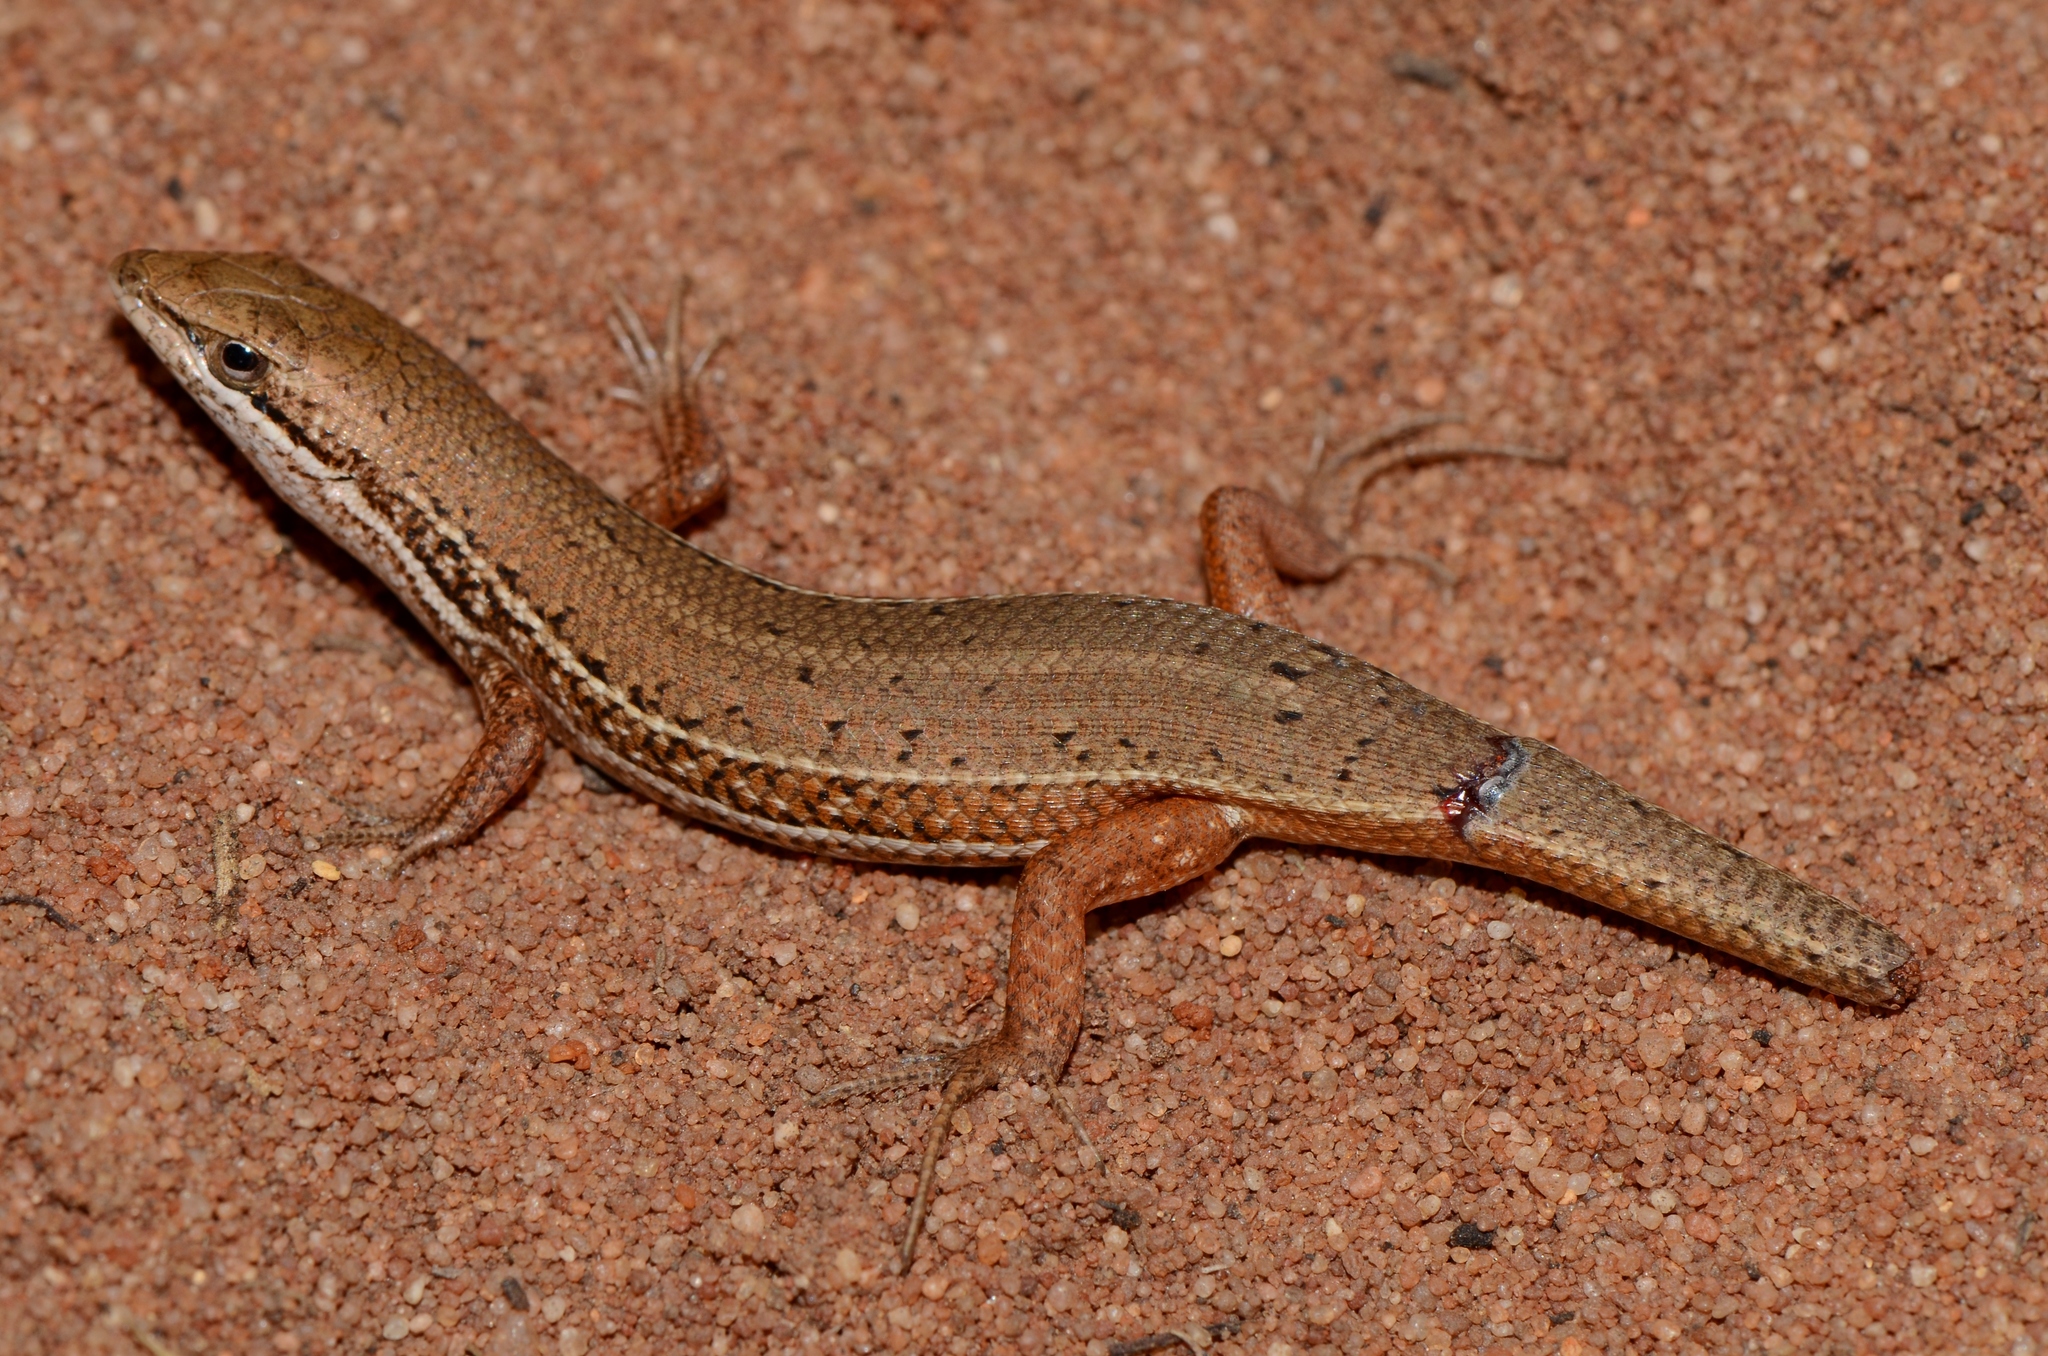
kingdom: Animalia
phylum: Chordata
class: Squamata
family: Scincidae
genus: Trachylepis
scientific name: Trachylepis punctulata
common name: Speckled sand skink
